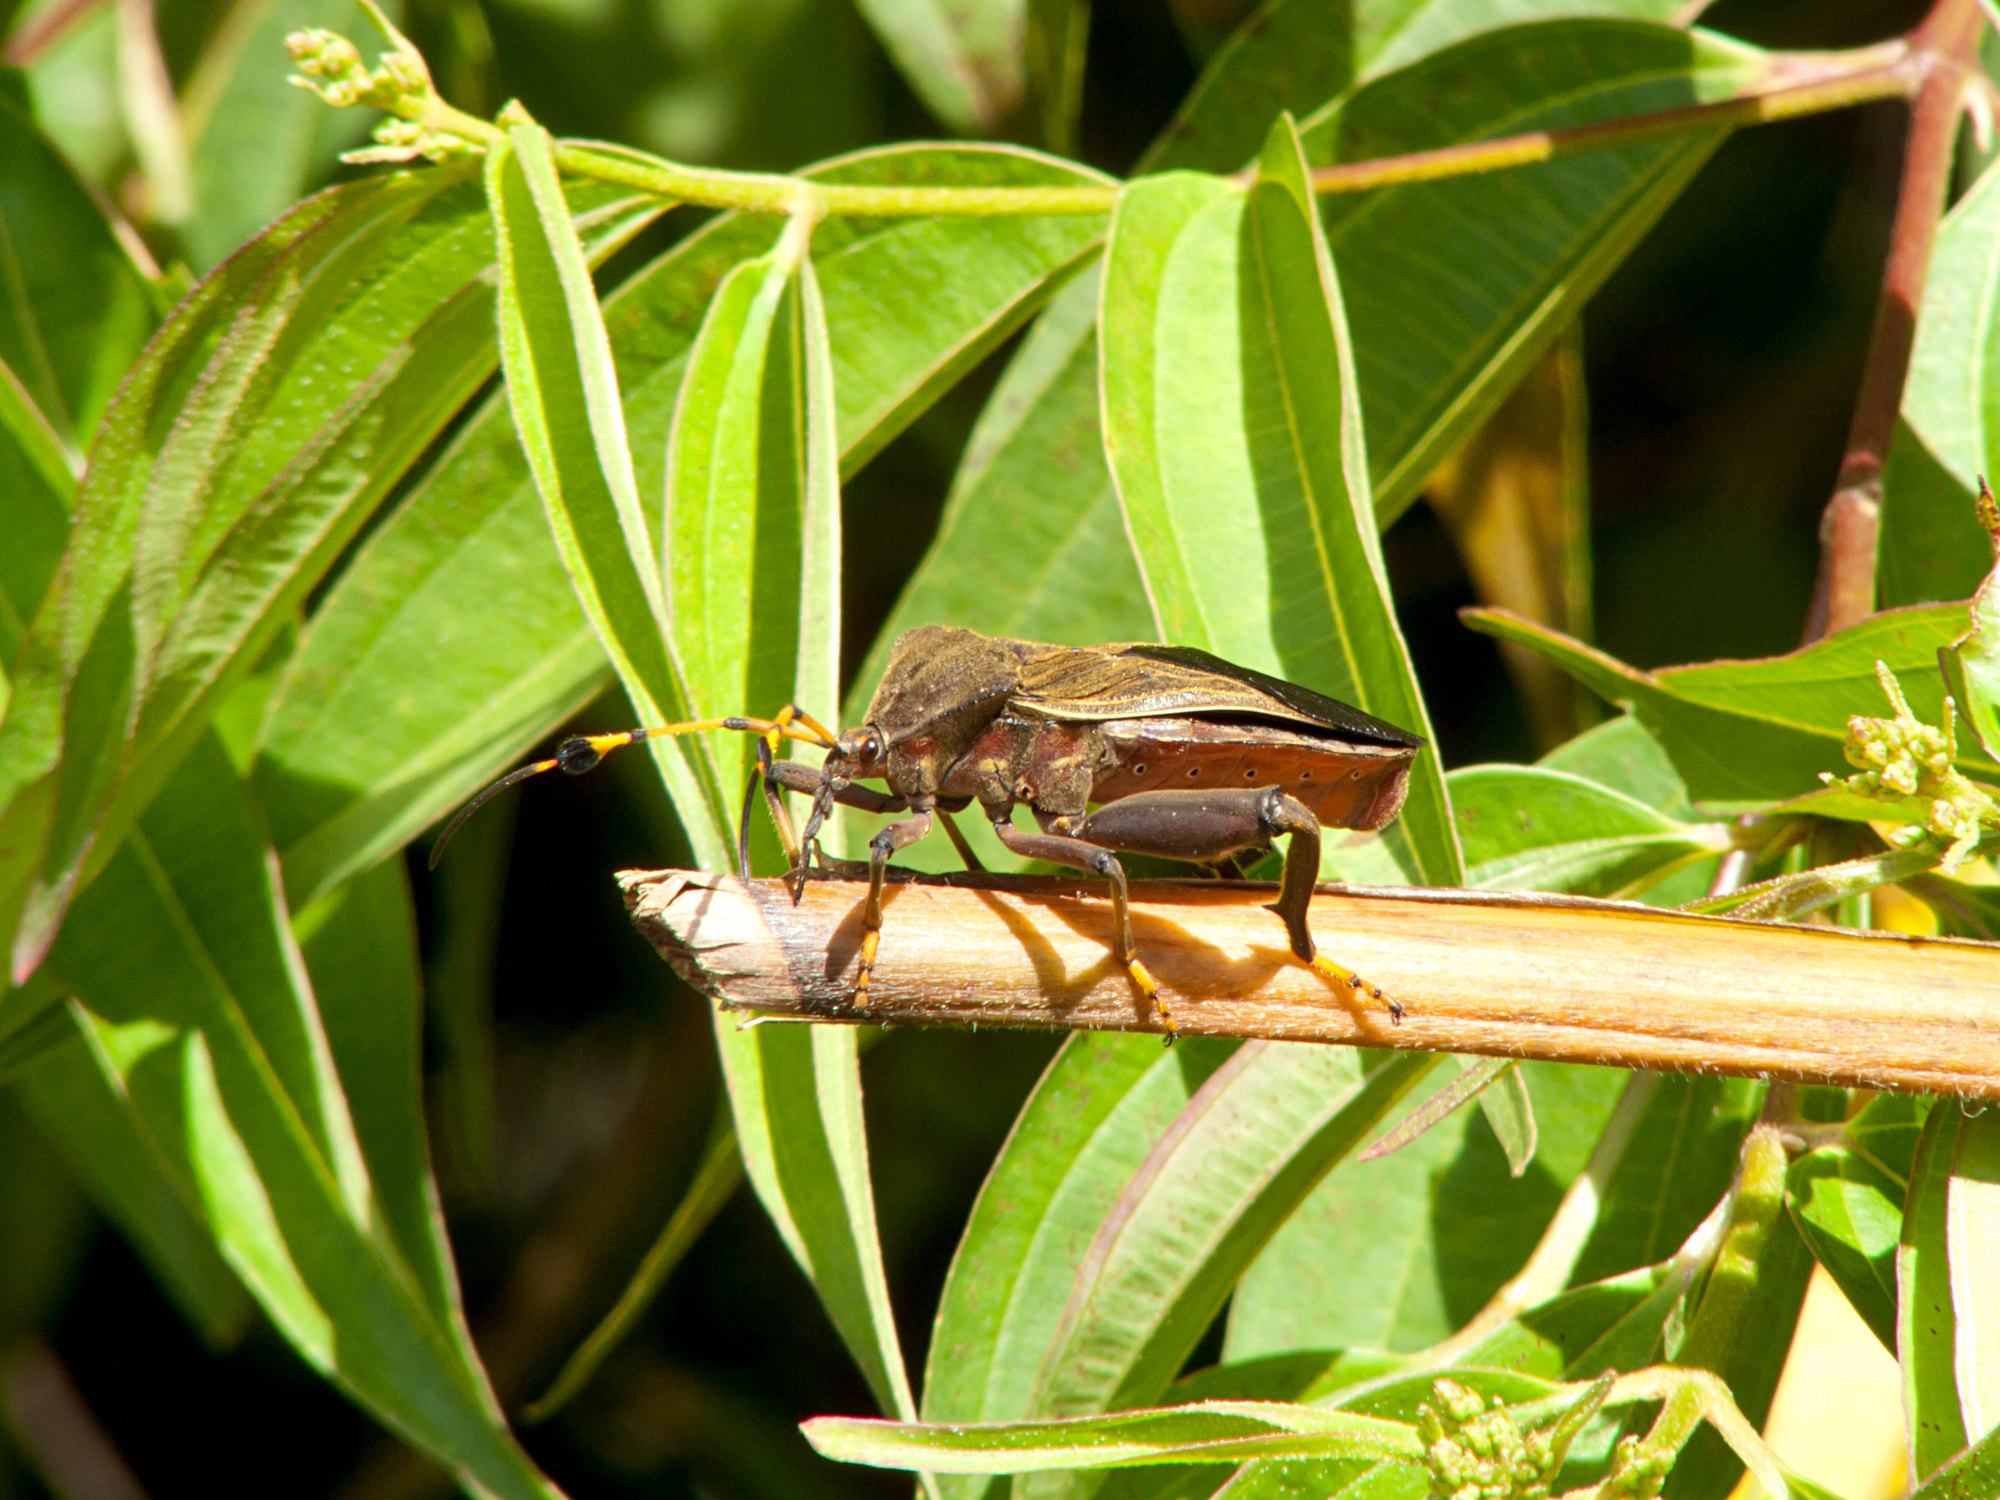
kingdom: Animalia
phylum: Arthropoda
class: Insecta
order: Hemiptera
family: Coreidae
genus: Pachylis
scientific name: Pachylis peramplus
